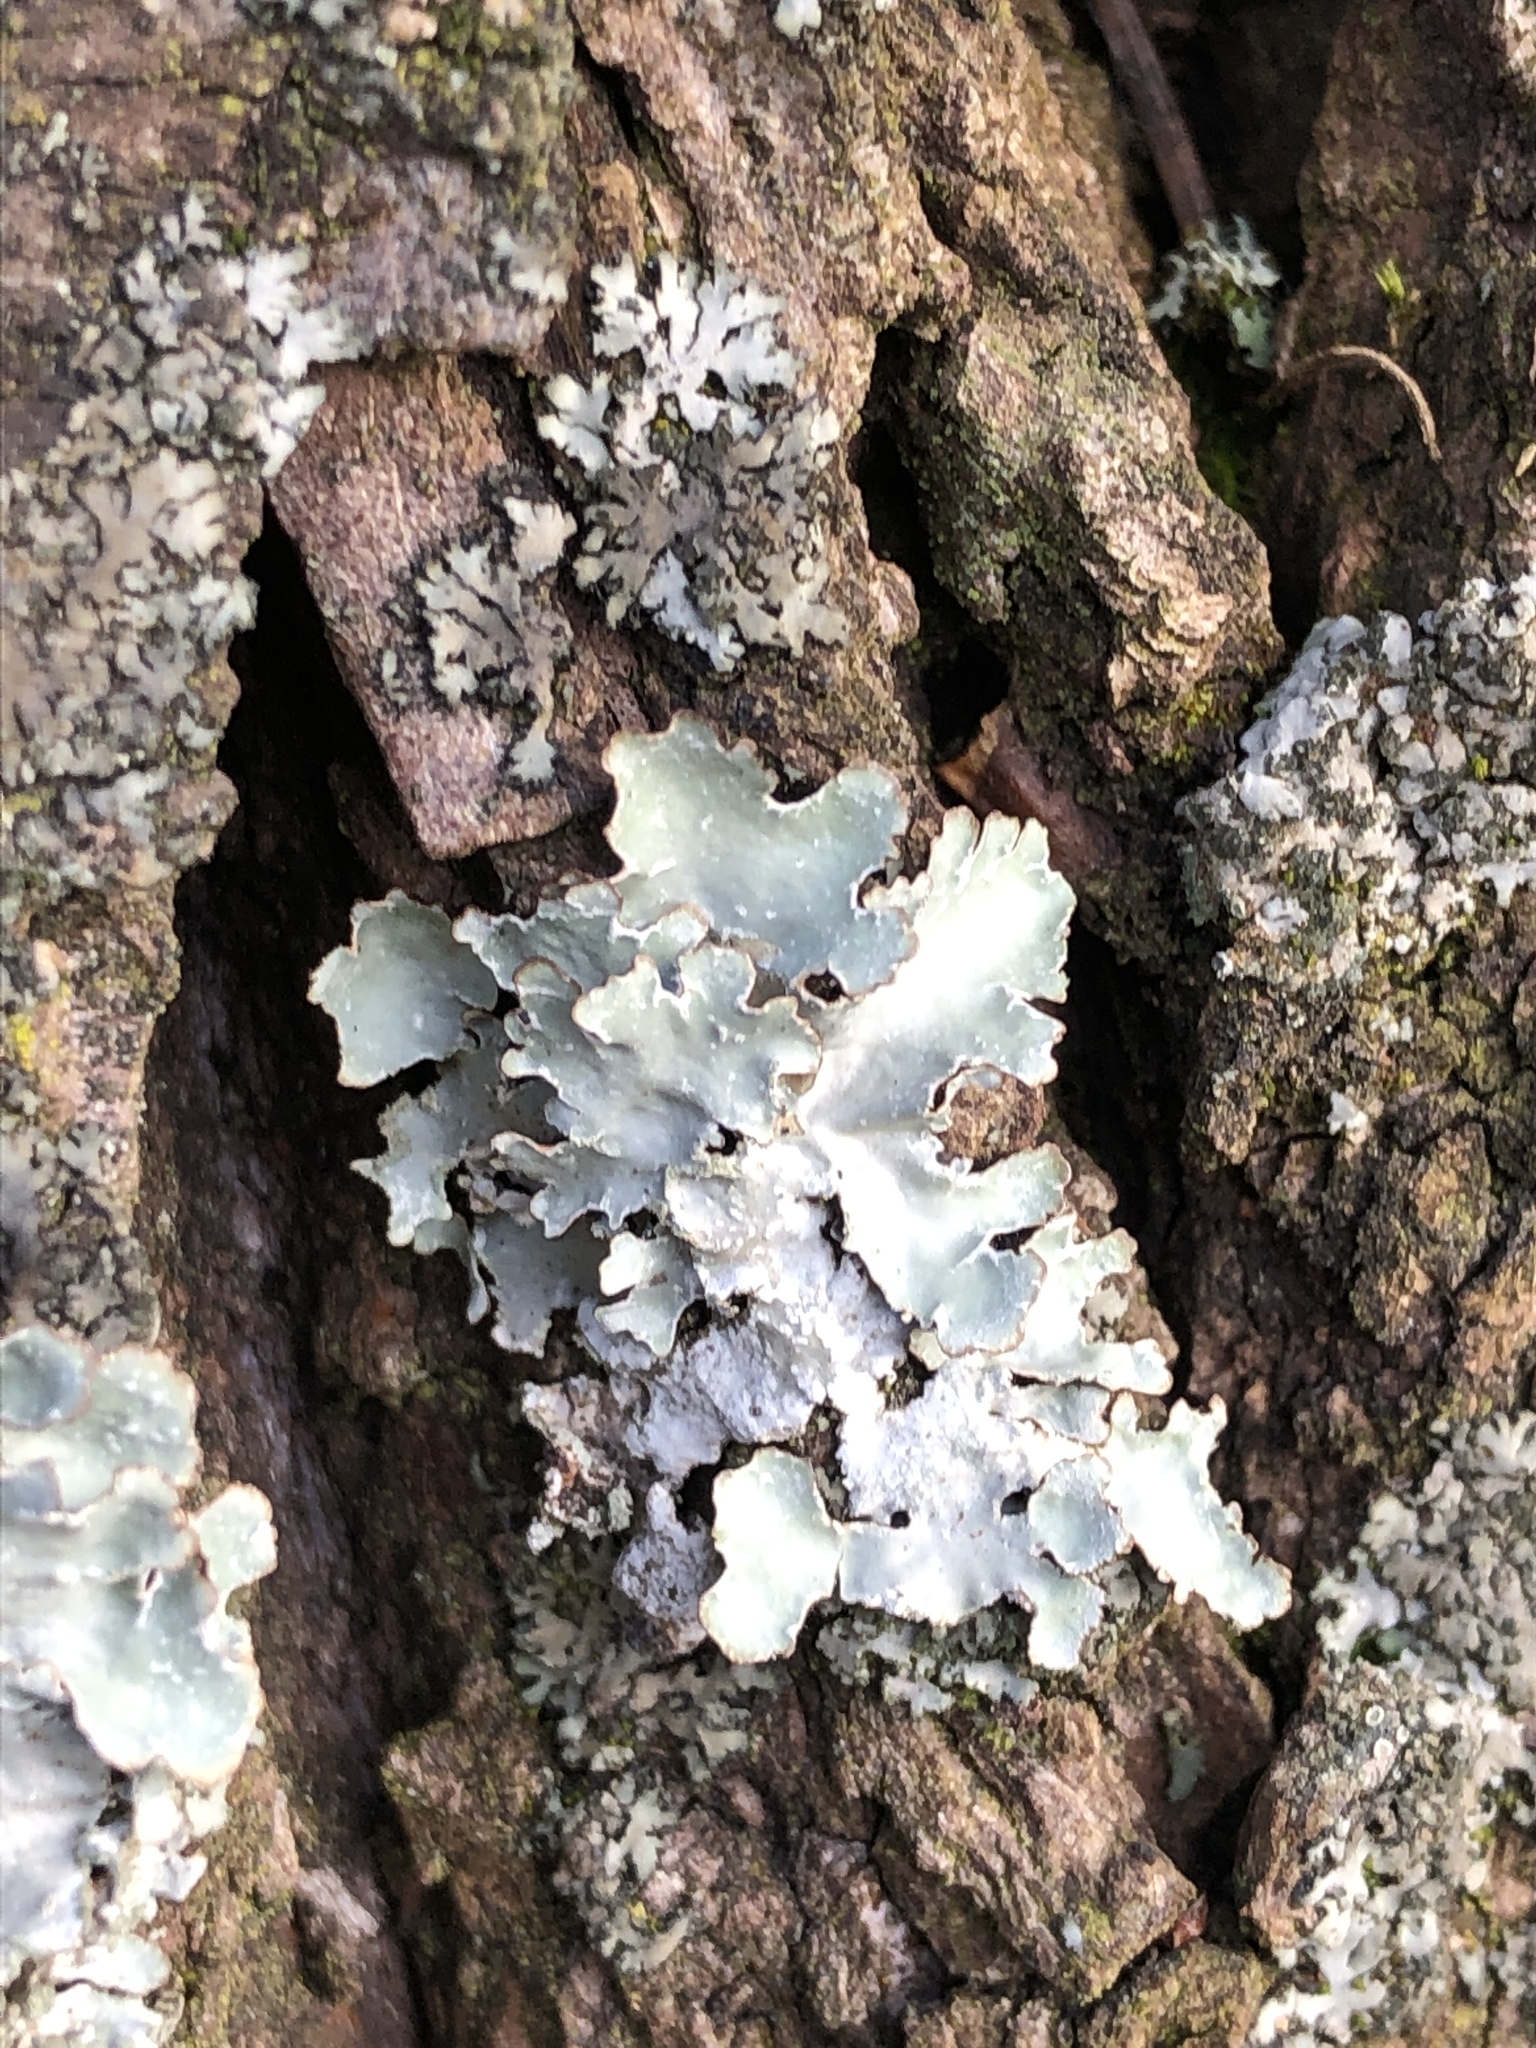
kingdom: Fungi
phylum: Ascomycota
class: Lecanoromycetes
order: Lecanorales
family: Parmeliaceae
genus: Parmelia
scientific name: Parmelia sulcata
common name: Netted shield lichen
